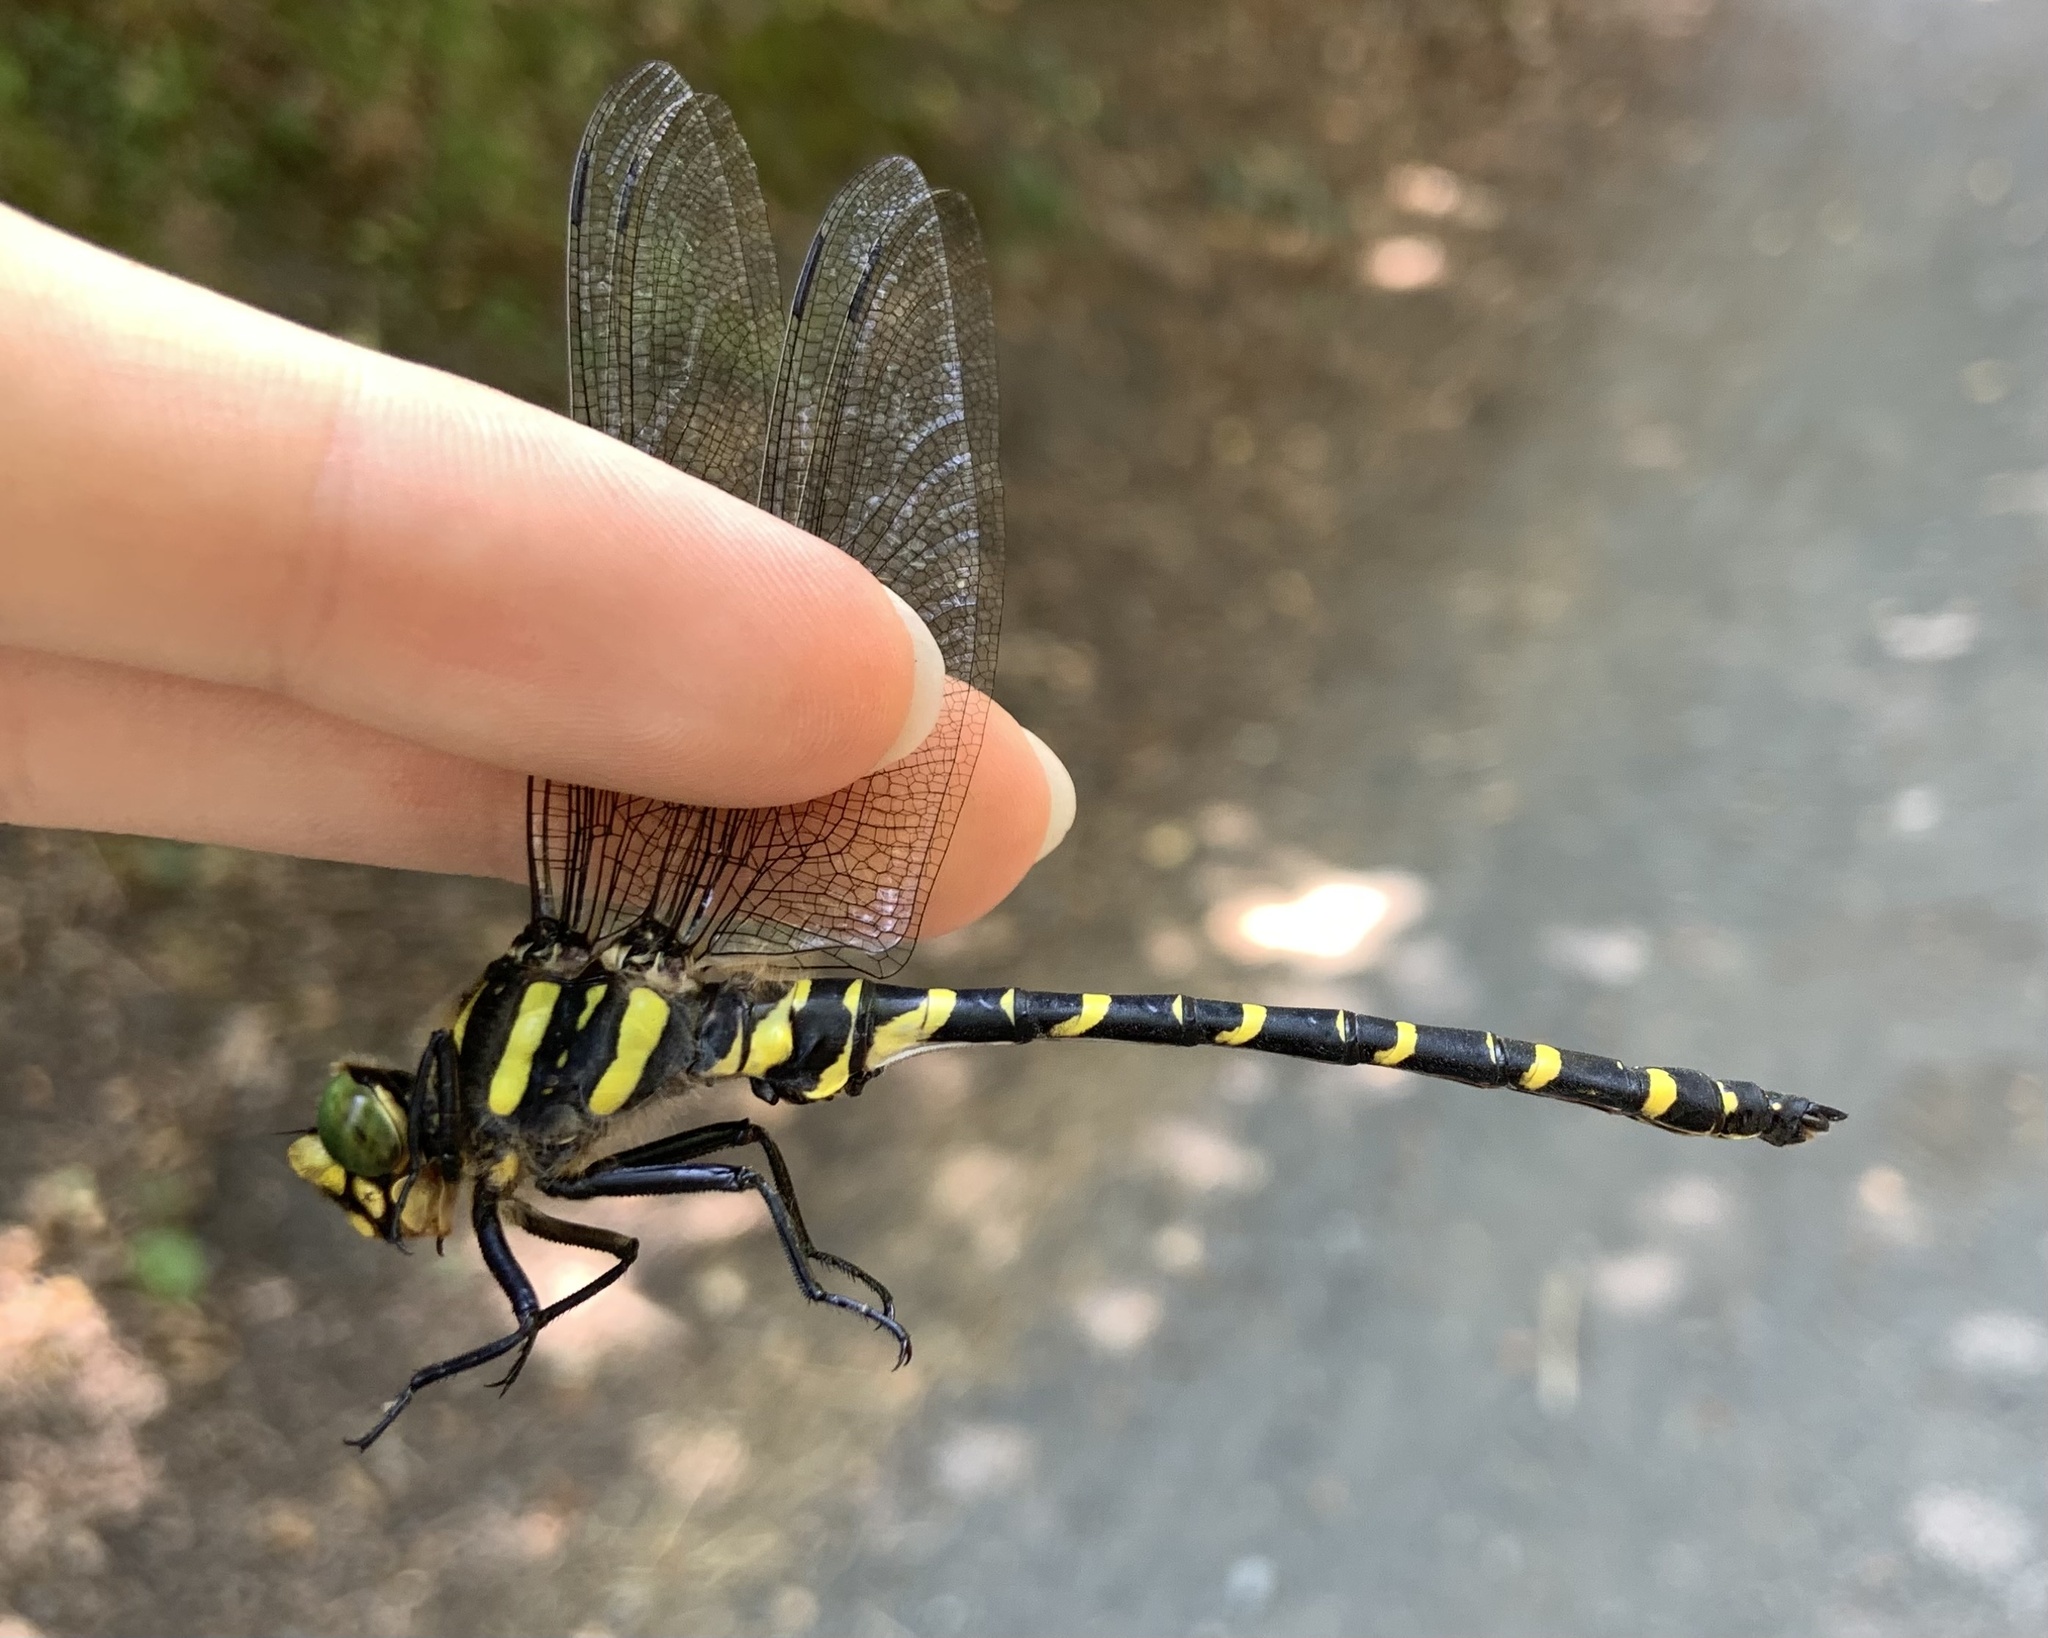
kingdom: Animalia
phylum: Arthropoda
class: Insecta
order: Odonata
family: Cordulegastridae
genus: Cordulegaster
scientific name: Cordulegaster boltonii
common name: Golden-ringed dragonfly
